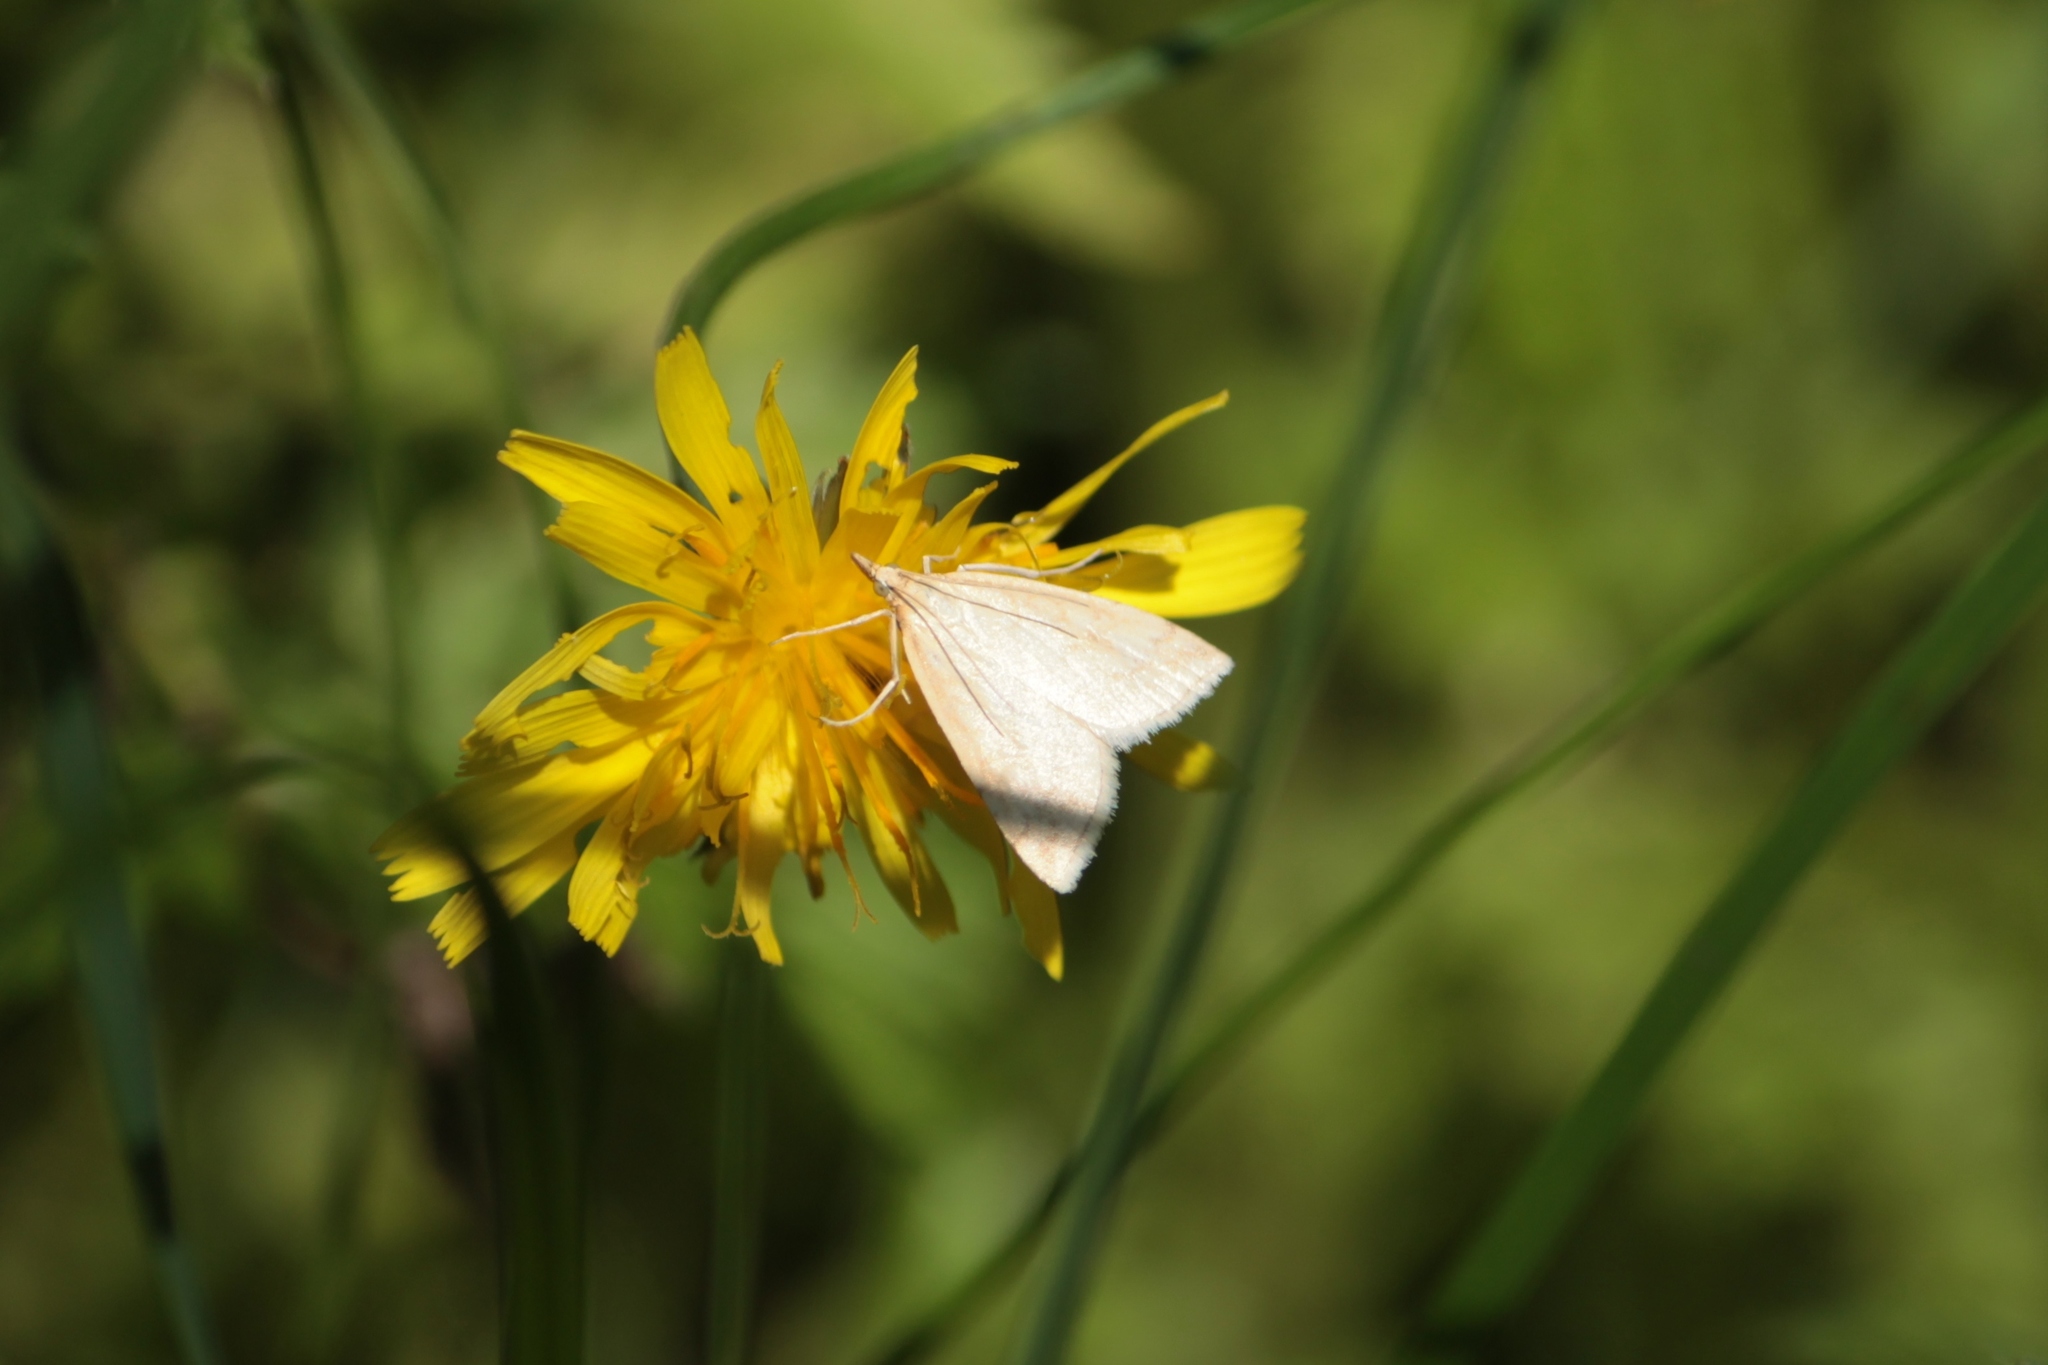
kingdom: Animalia
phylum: Arthropoda
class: Insecta
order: Lepidoptera
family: Crambidae
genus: Udea
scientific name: Udea lutealis
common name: Pale straw pearl
